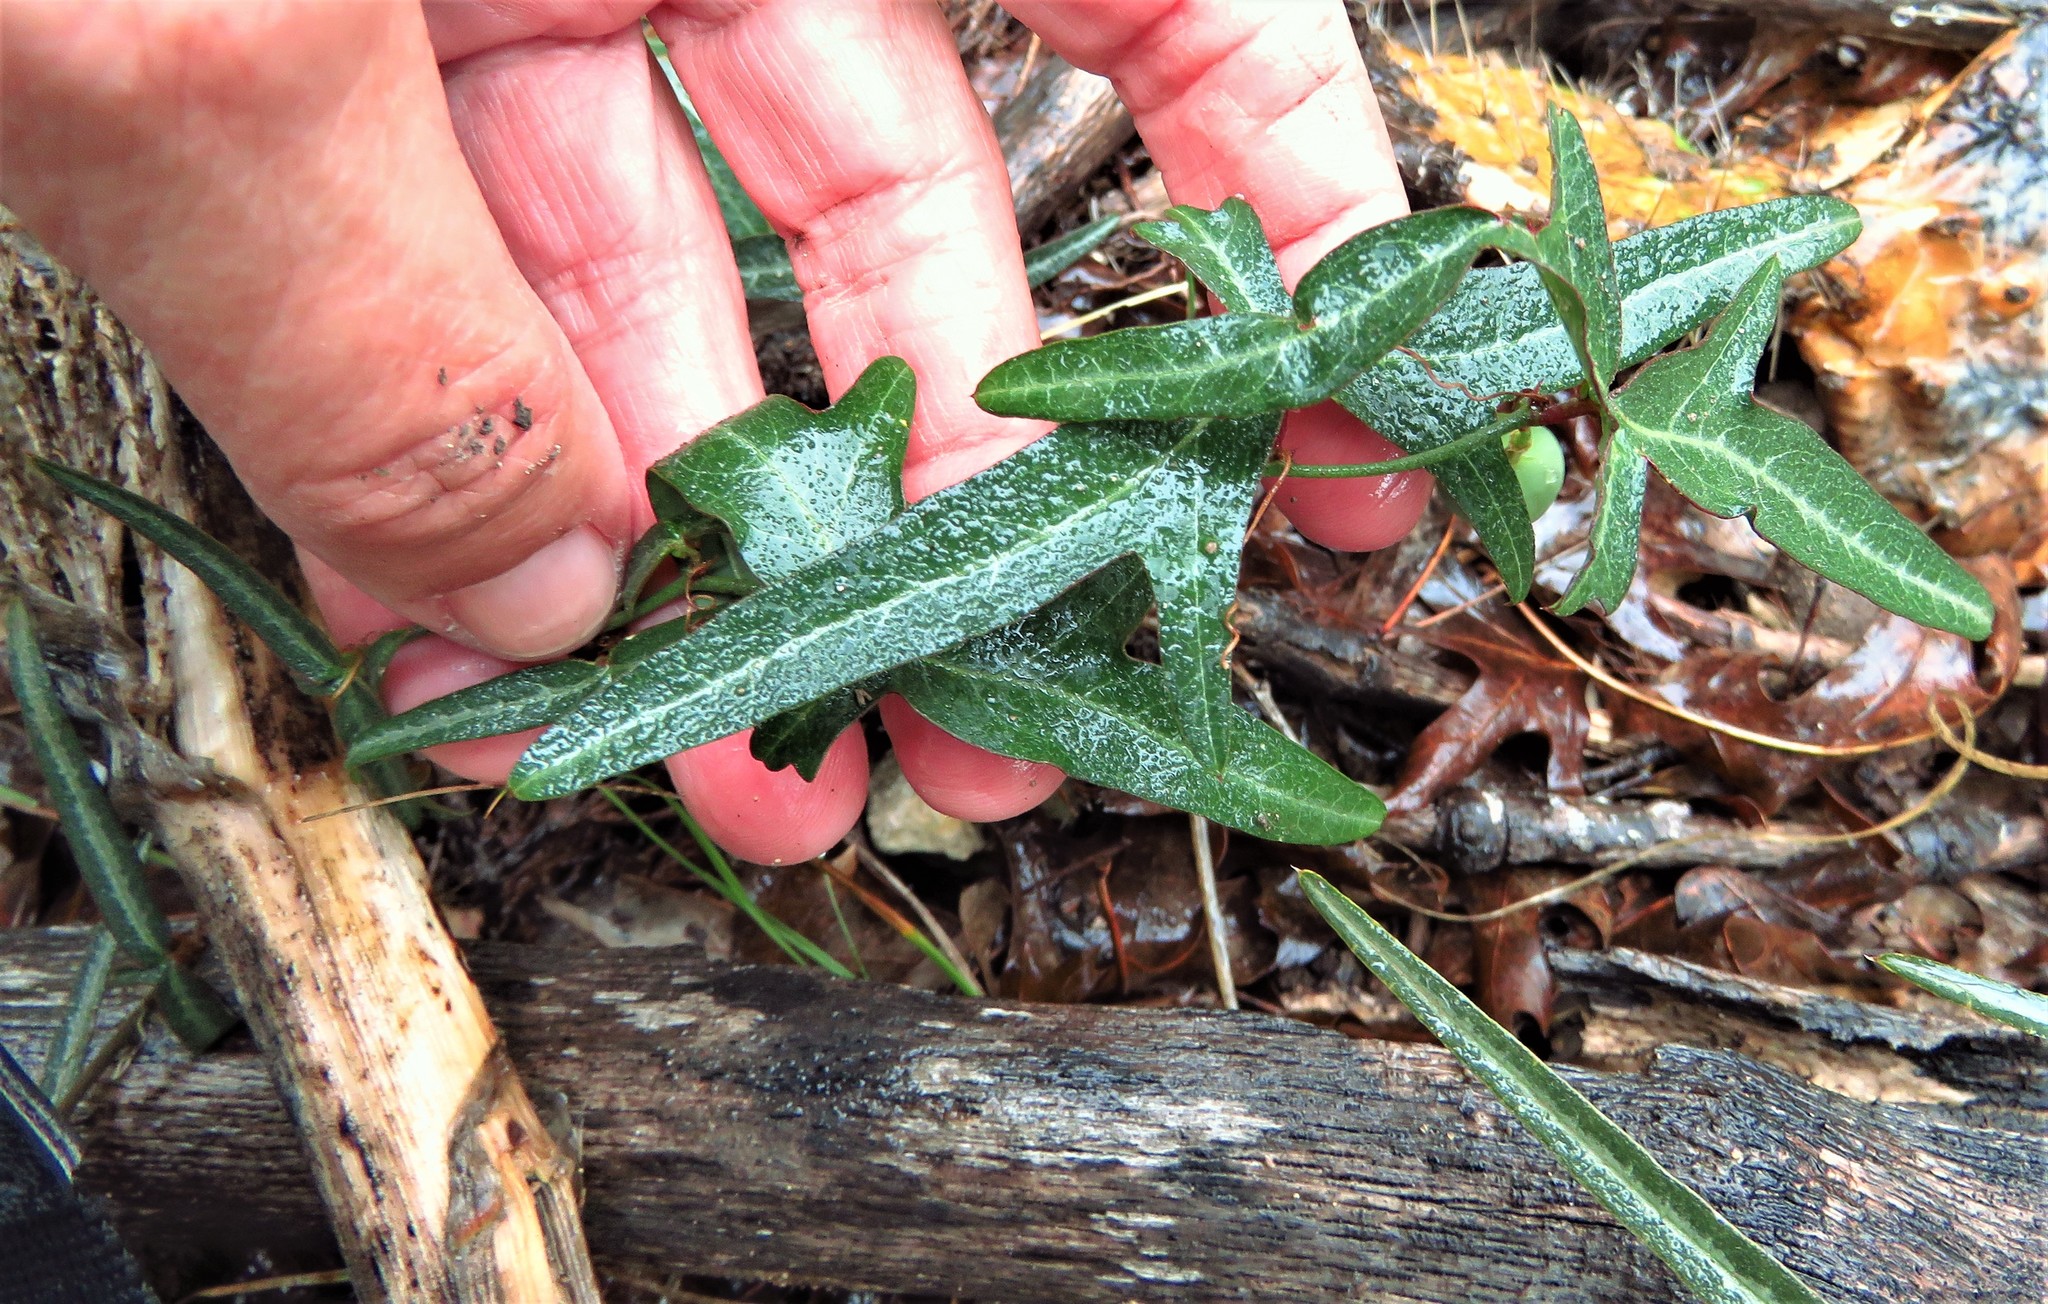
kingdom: Plantae
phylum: Tracheophyta
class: Magnoliopsida
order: Malpighiales
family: Passifloraceae
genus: Passiflora
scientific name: Passiflora tenuiloba
